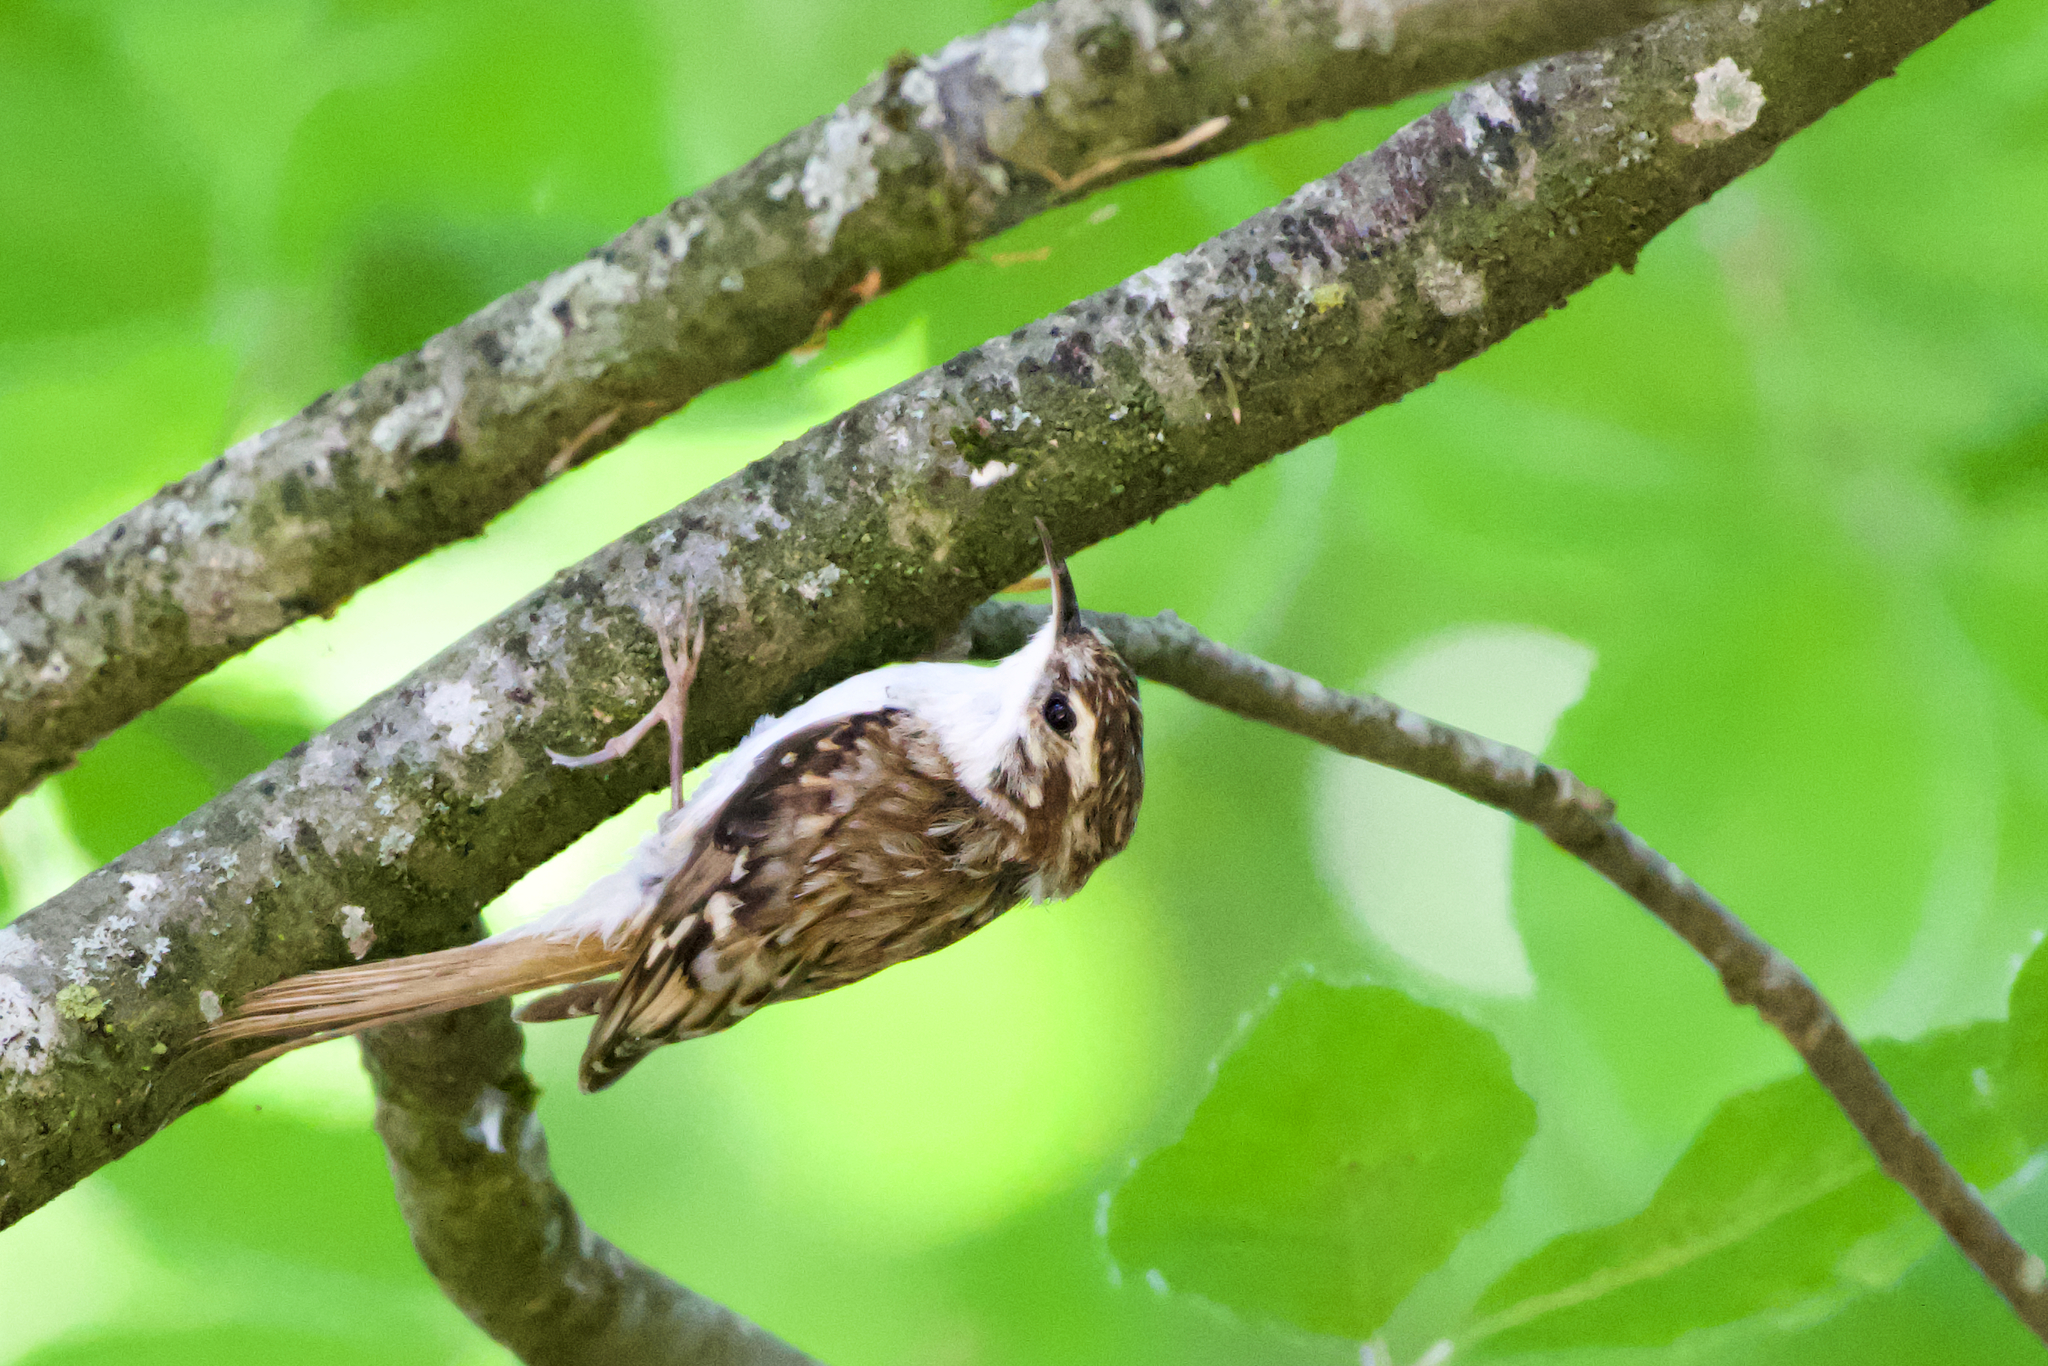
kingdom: Animalia
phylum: Chordata
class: Aves
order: Passeriformes
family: Certhiidae
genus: Certhia
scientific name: Certhia familiaris
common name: Eurasian treecreeper
